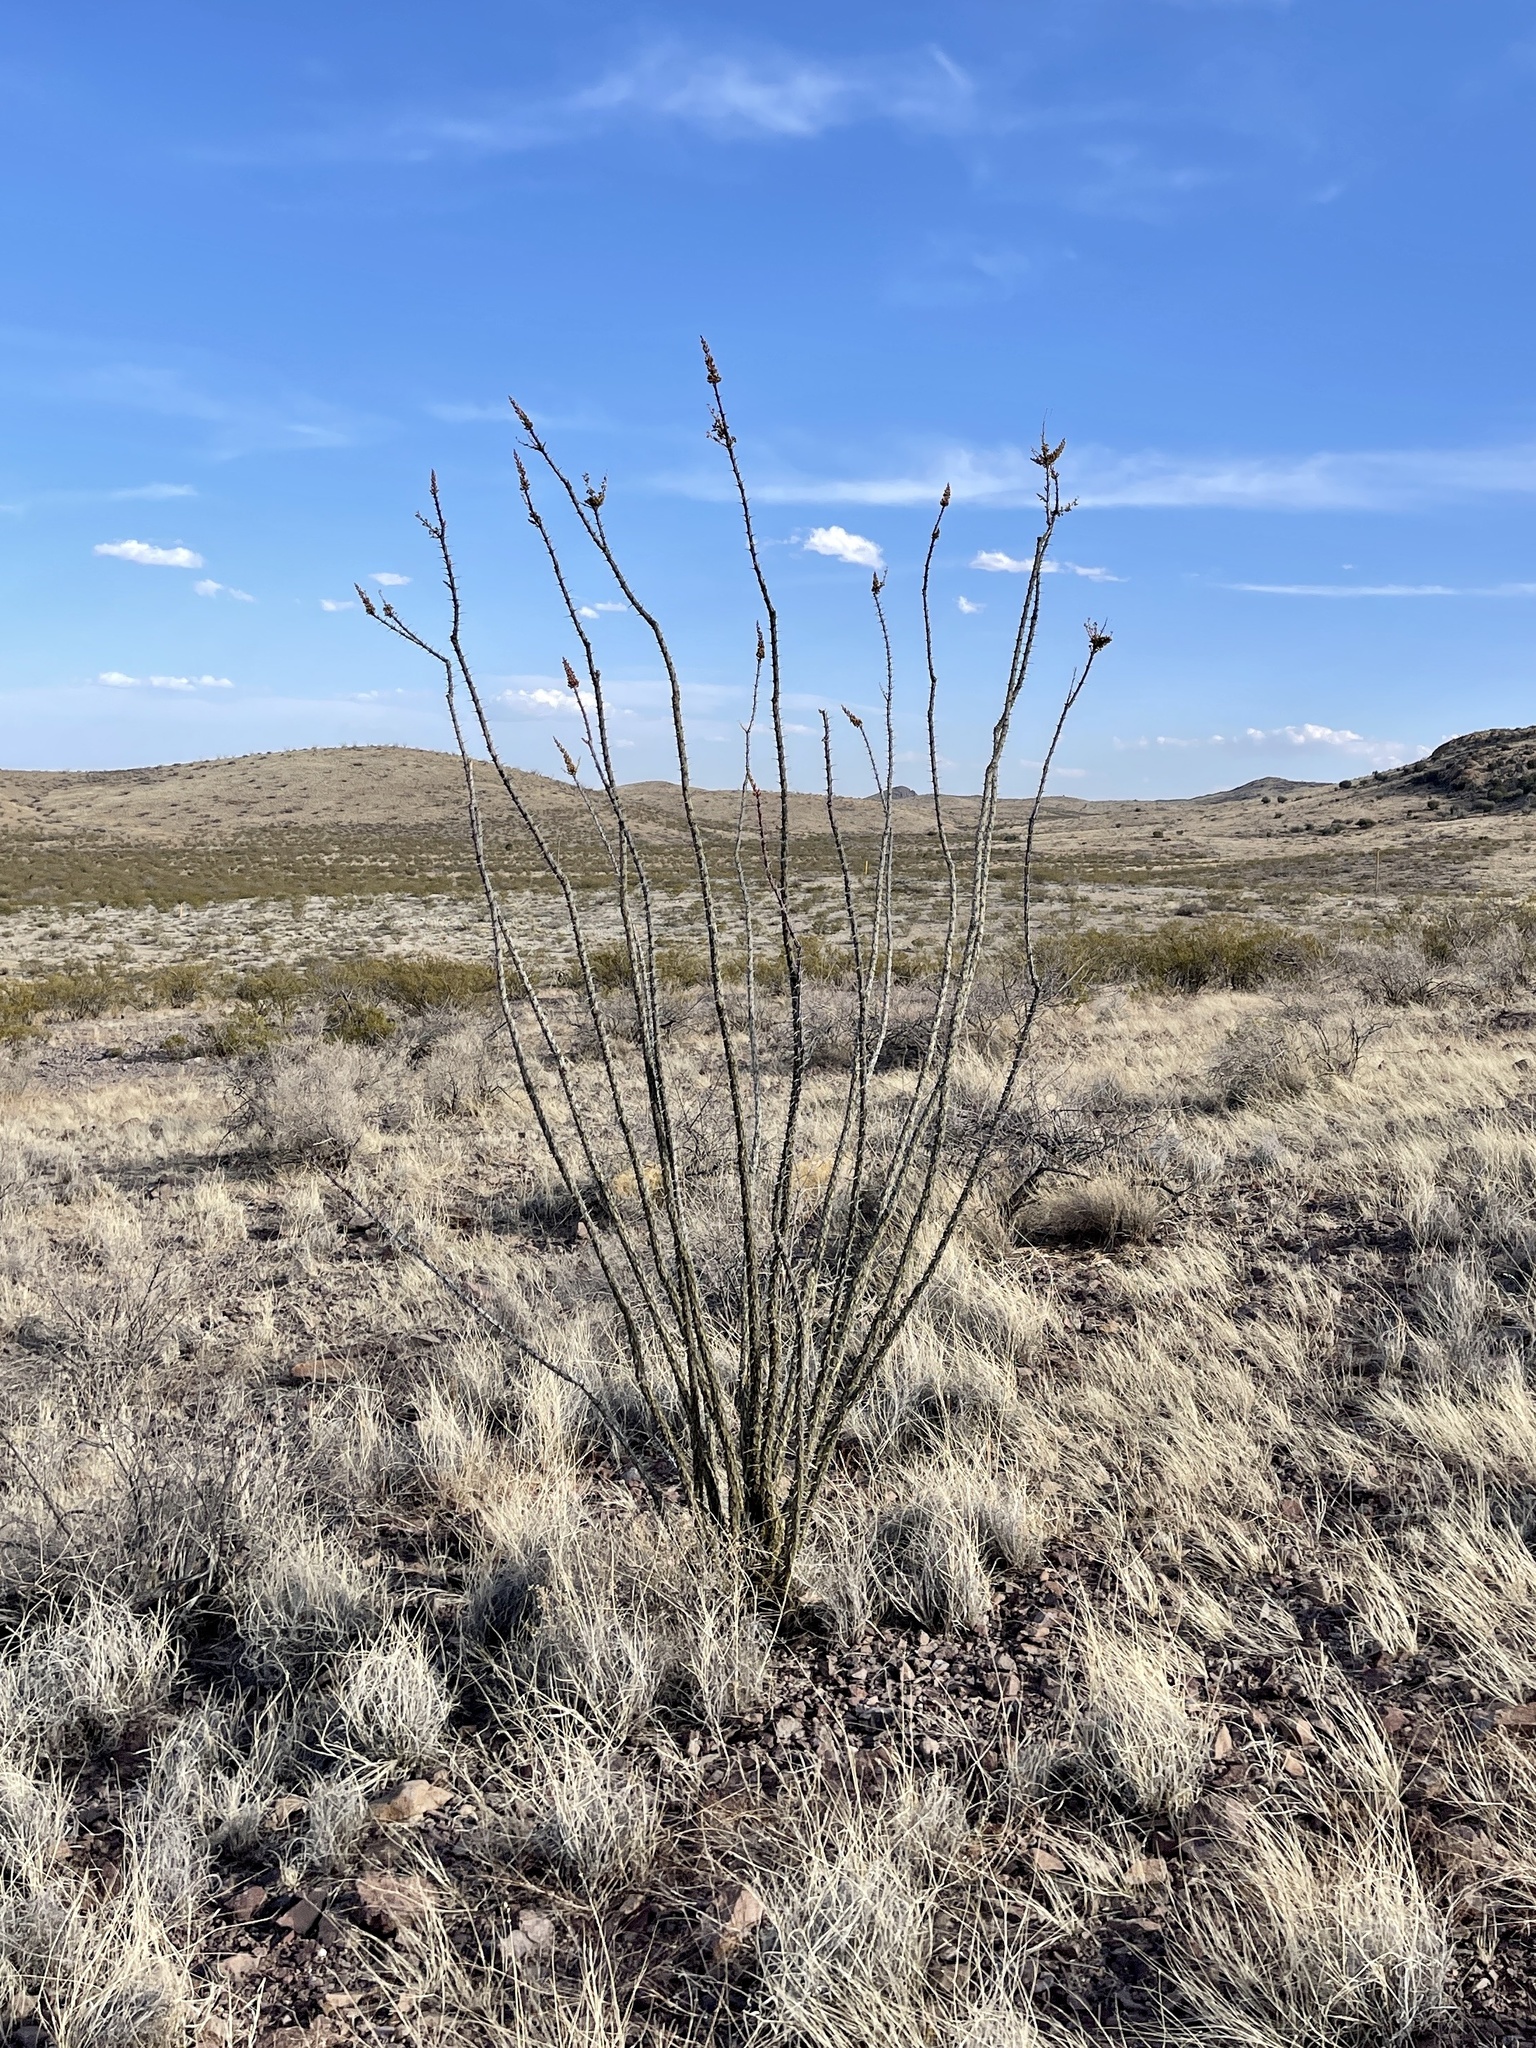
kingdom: Plantae
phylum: Tracheophyta
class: Magnoliopsida
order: Ericales
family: Fouquieriaceae
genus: Fouquieria
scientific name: Fouquieria splendens
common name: Vine-cactus
